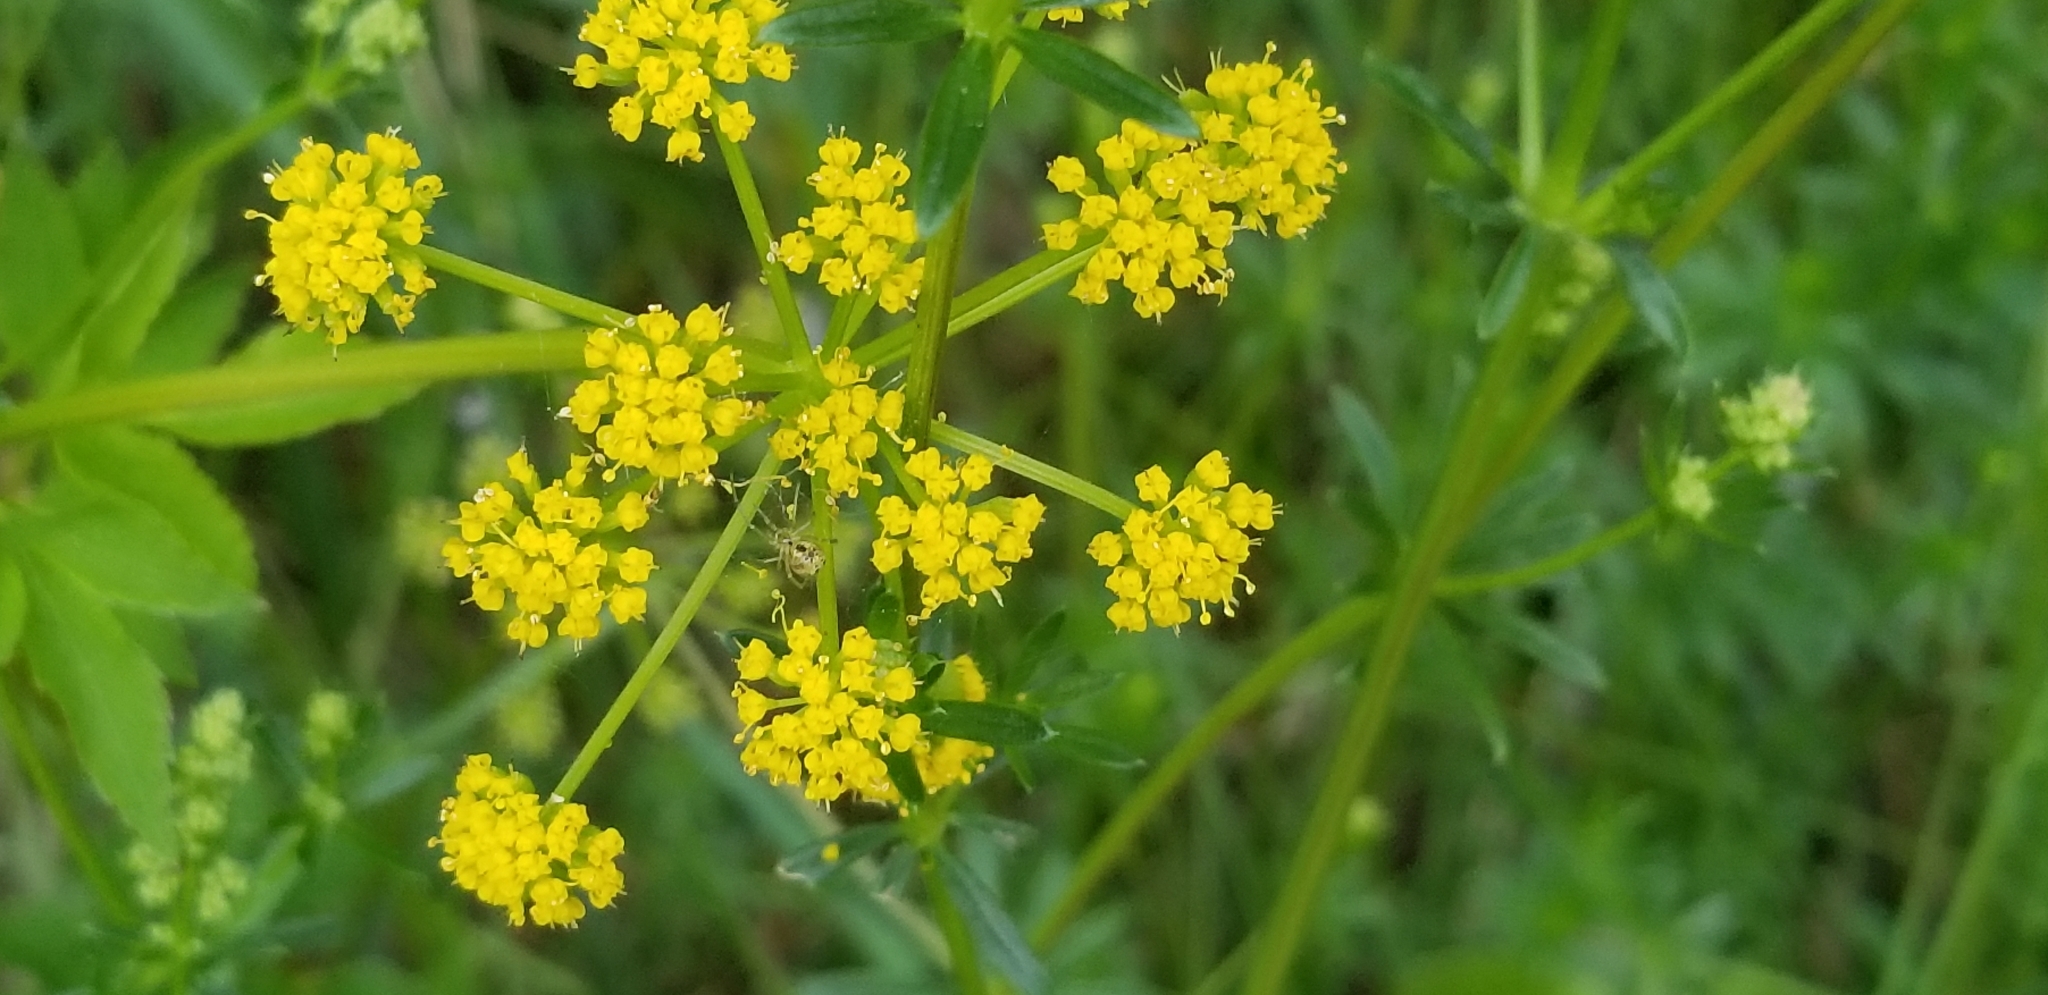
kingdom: Plantae
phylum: Tracheophyta
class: Magnoliopsida
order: Apiales
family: Apiaceae
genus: Zizia
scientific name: Zizia aurea
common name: Golden alexanders
